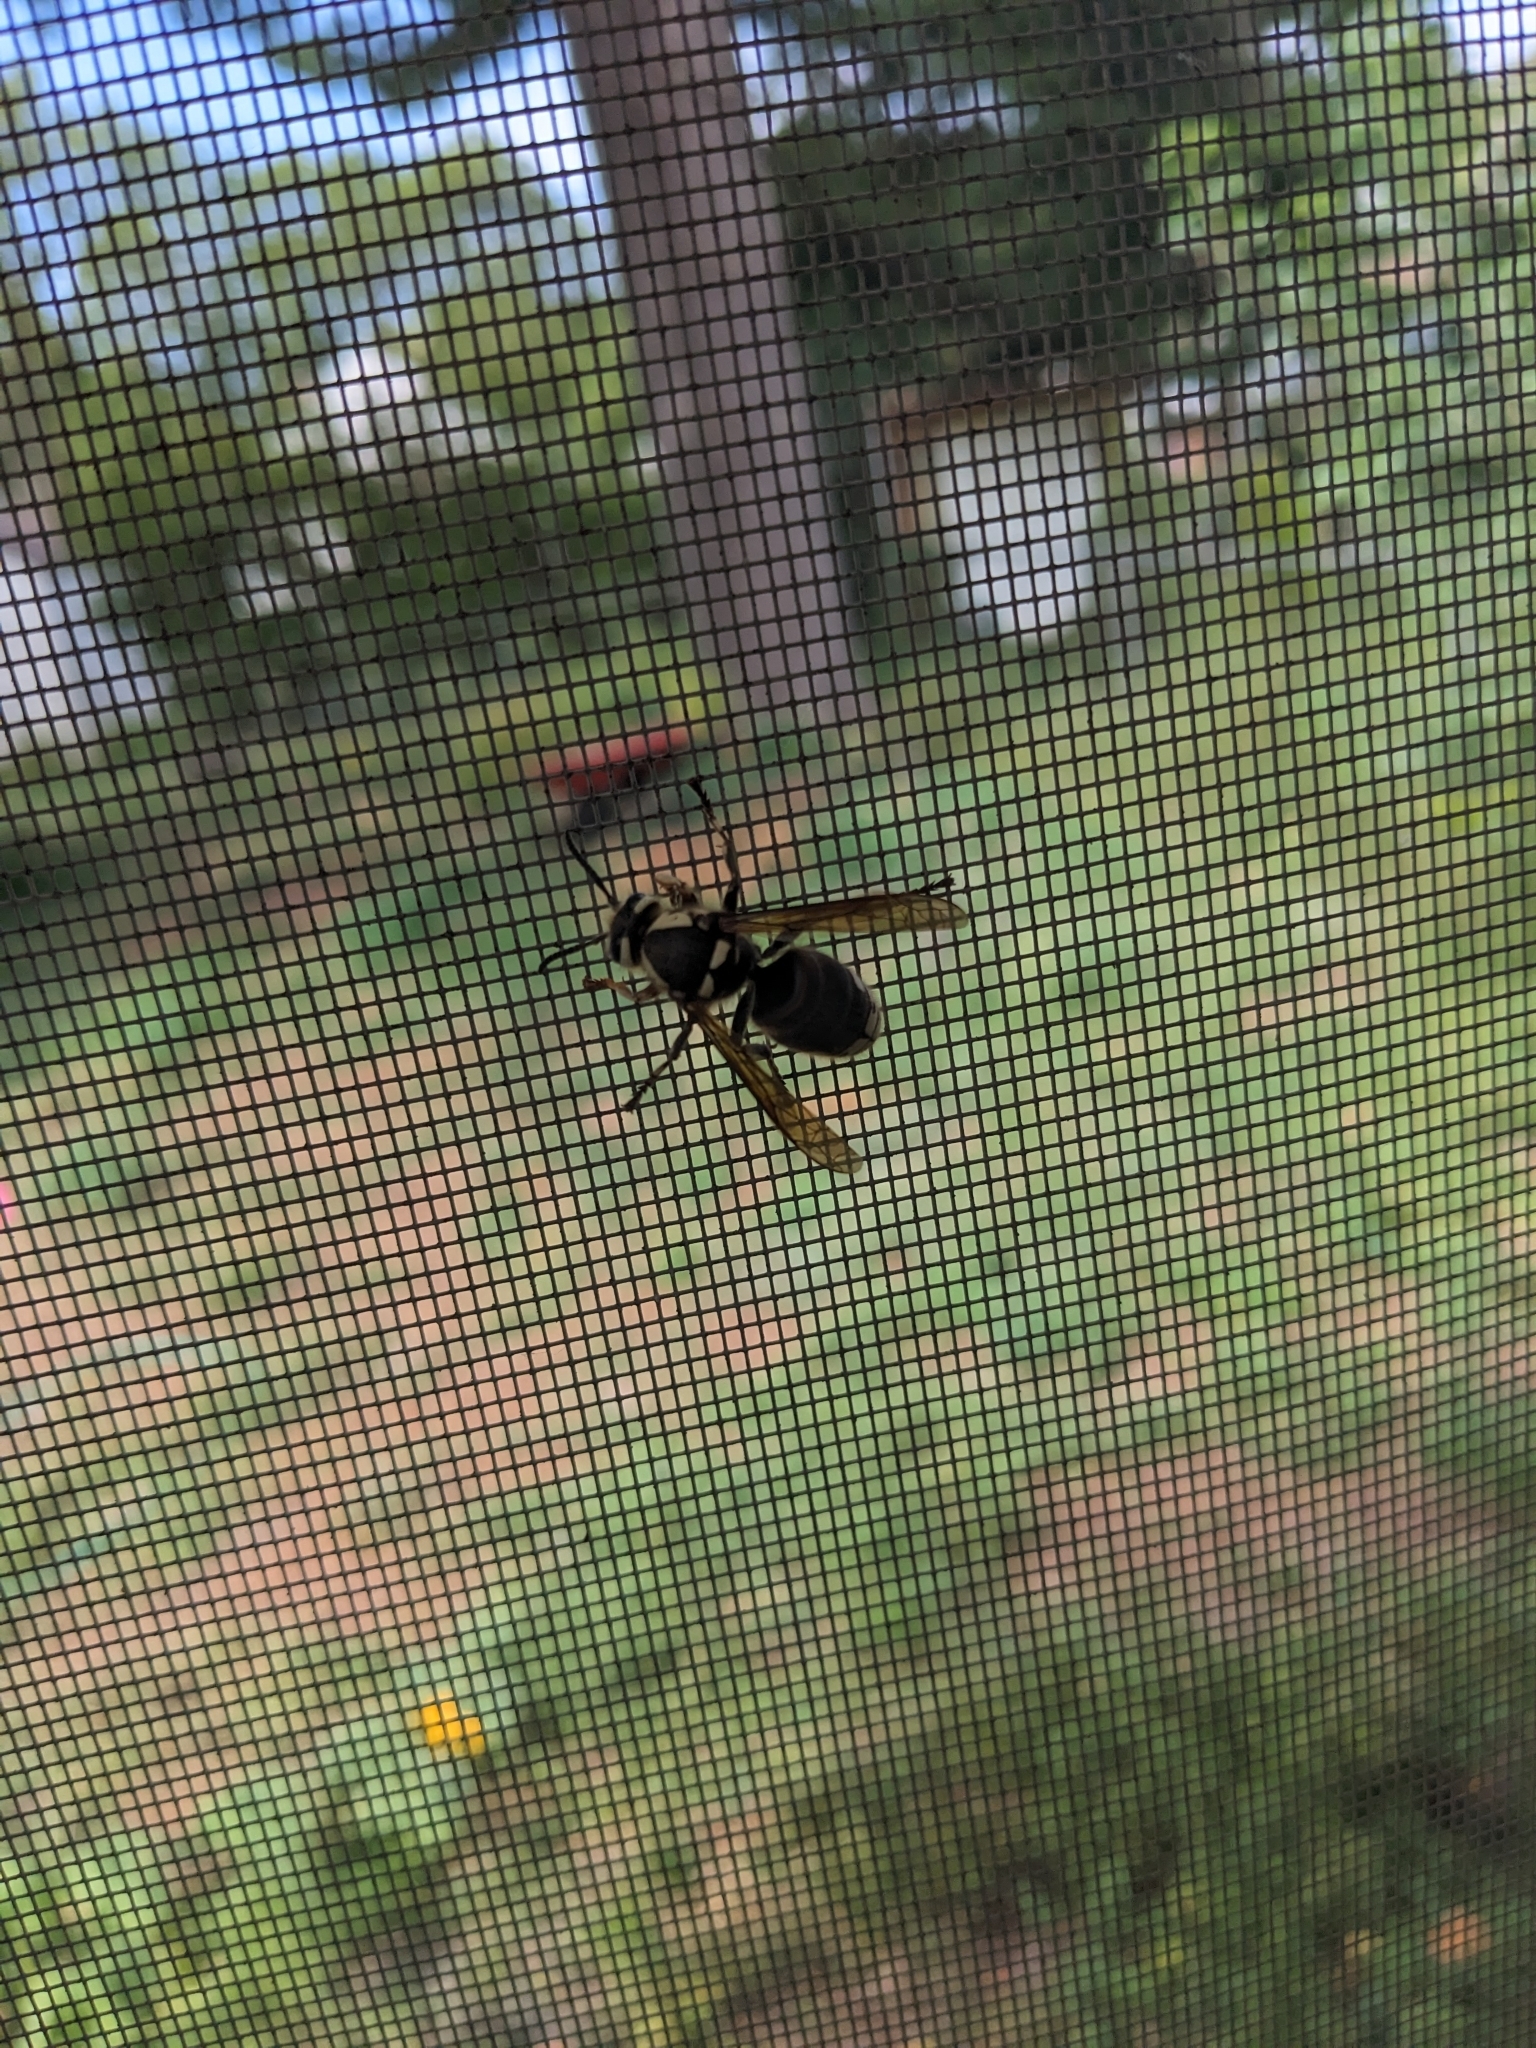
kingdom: Animalia
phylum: Arthropoda
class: Insecta
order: Hymenoptera
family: Vespidae
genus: Dolichovespula
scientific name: Dolichovespula maculata
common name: Bald-faced hornet
